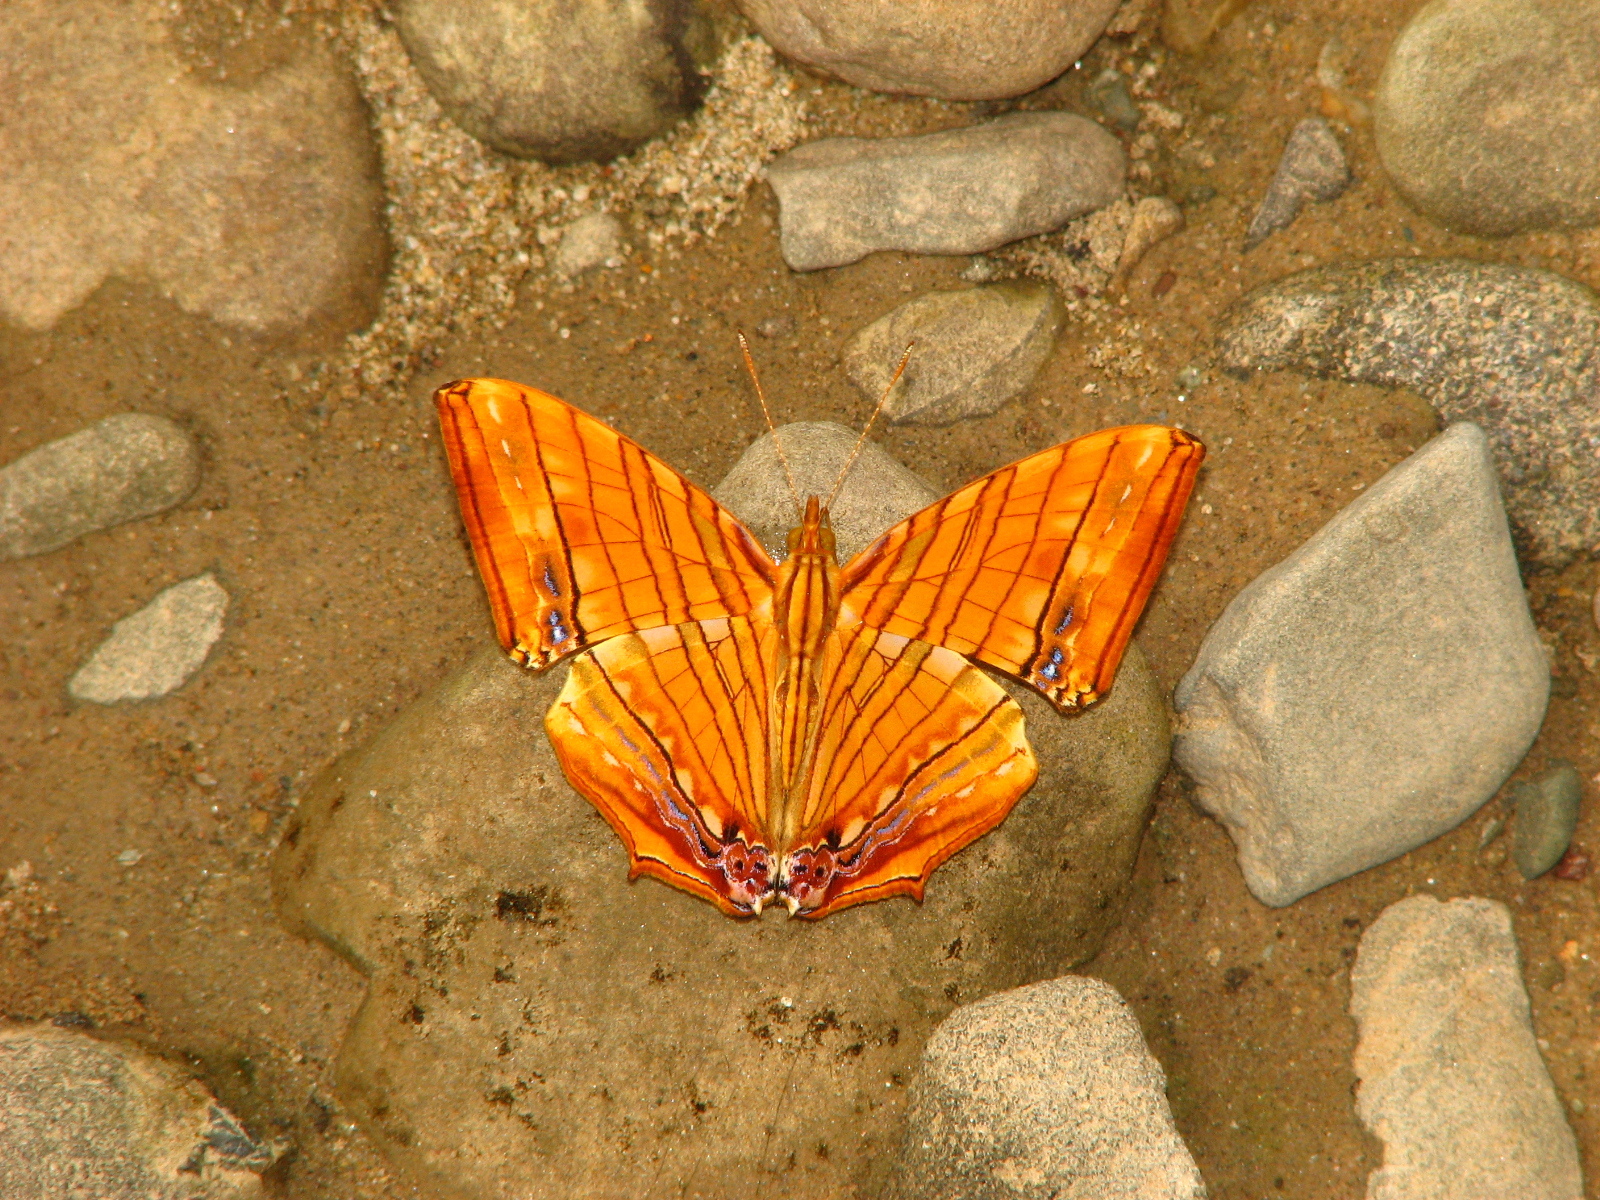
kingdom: Animalia
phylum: Arthropoda
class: Insecta
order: Lepidoptera
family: Nymphalidae
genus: Chersonesia
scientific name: Chersonesia risa
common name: Common maplet
